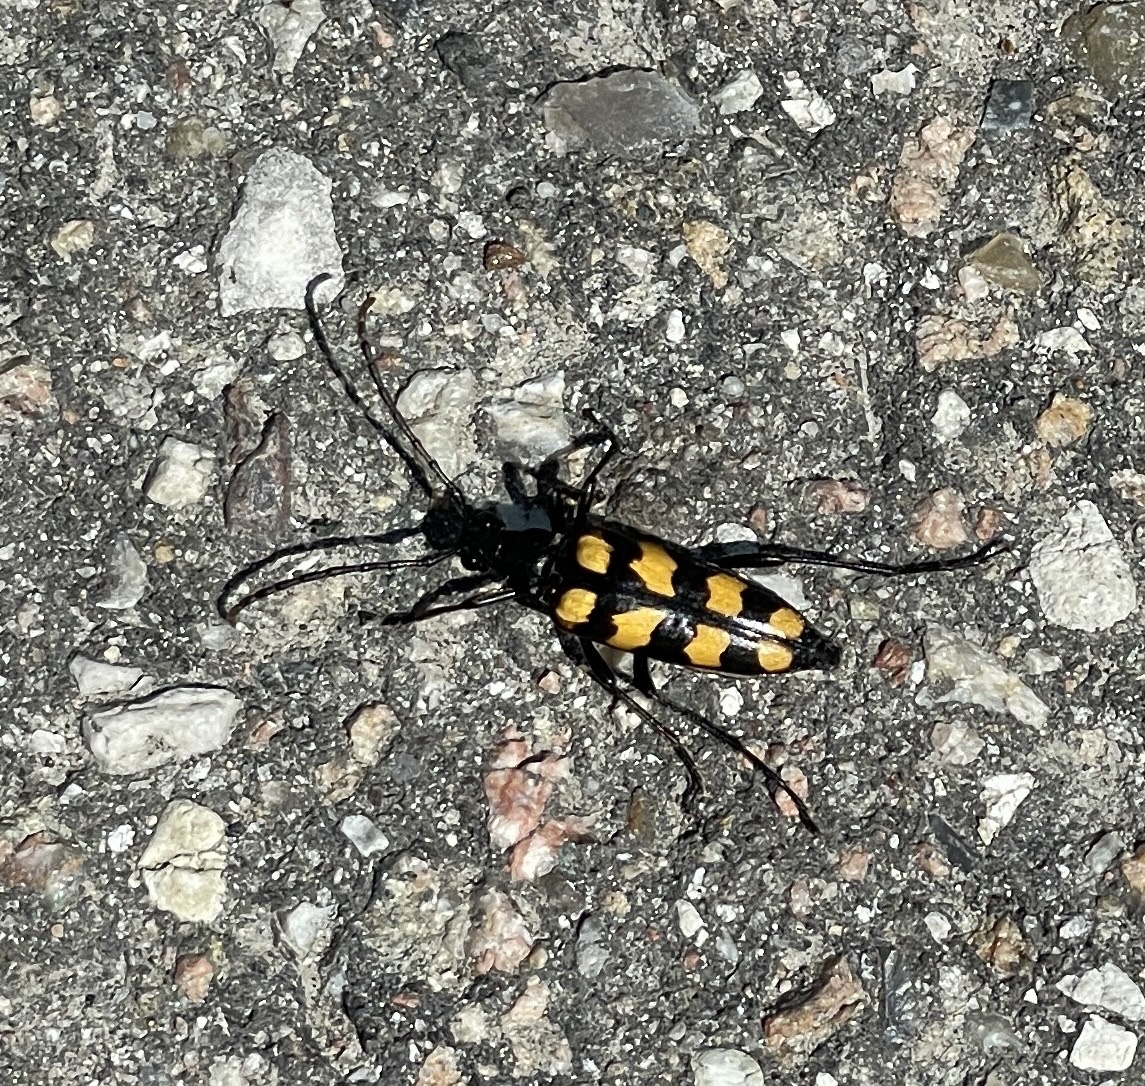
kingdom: Animalia
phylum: Arthropoda
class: Insecta
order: Coleoptera
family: Cerambycidae
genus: Leptura
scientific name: Leptura quadrifasciata
